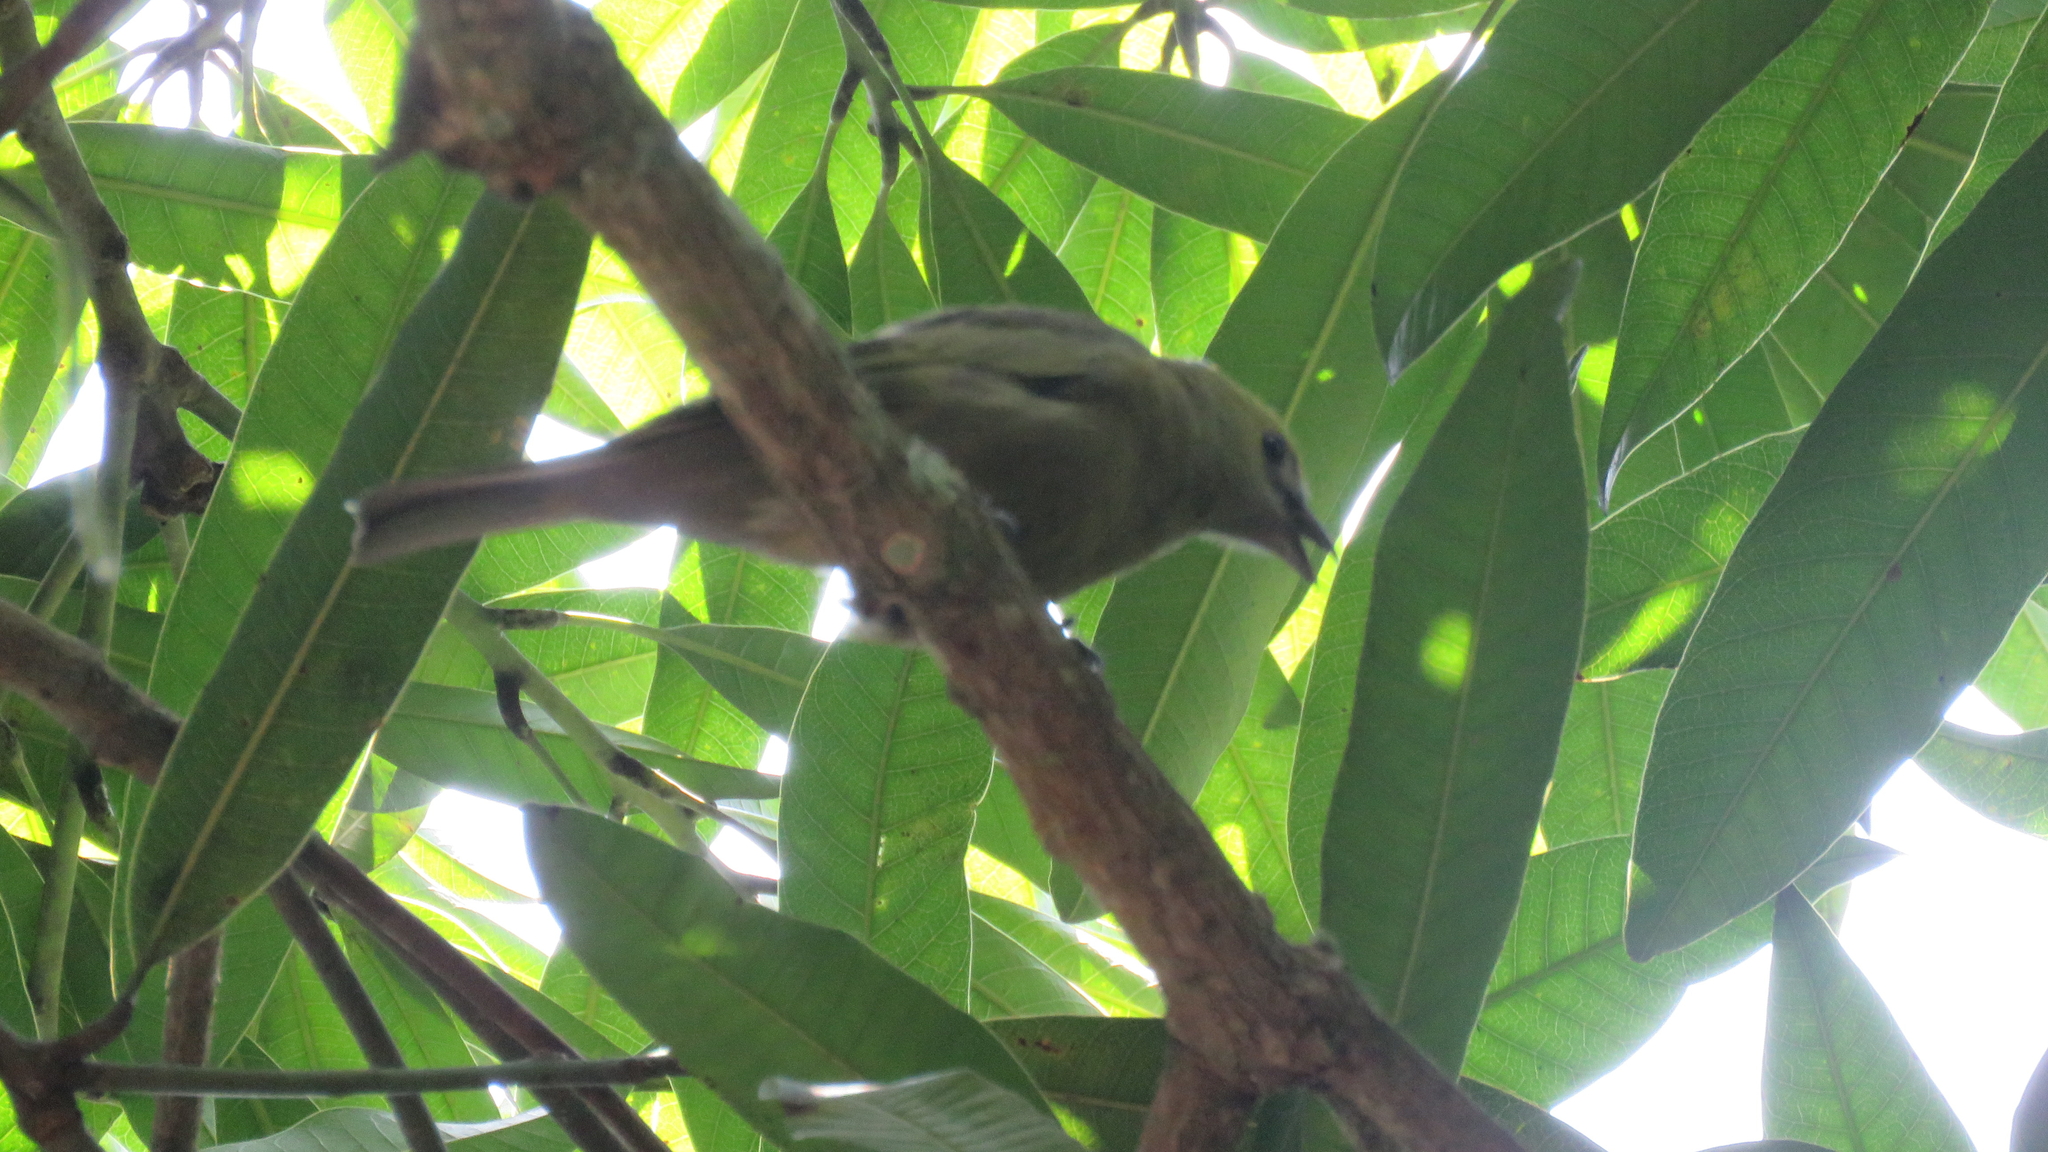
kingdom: Animalia
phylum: Chordata
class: Aves
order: Passeriformes
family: Thraupidae
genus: Thraupis
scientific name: Thraupis palmarum
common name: Palm tanager
